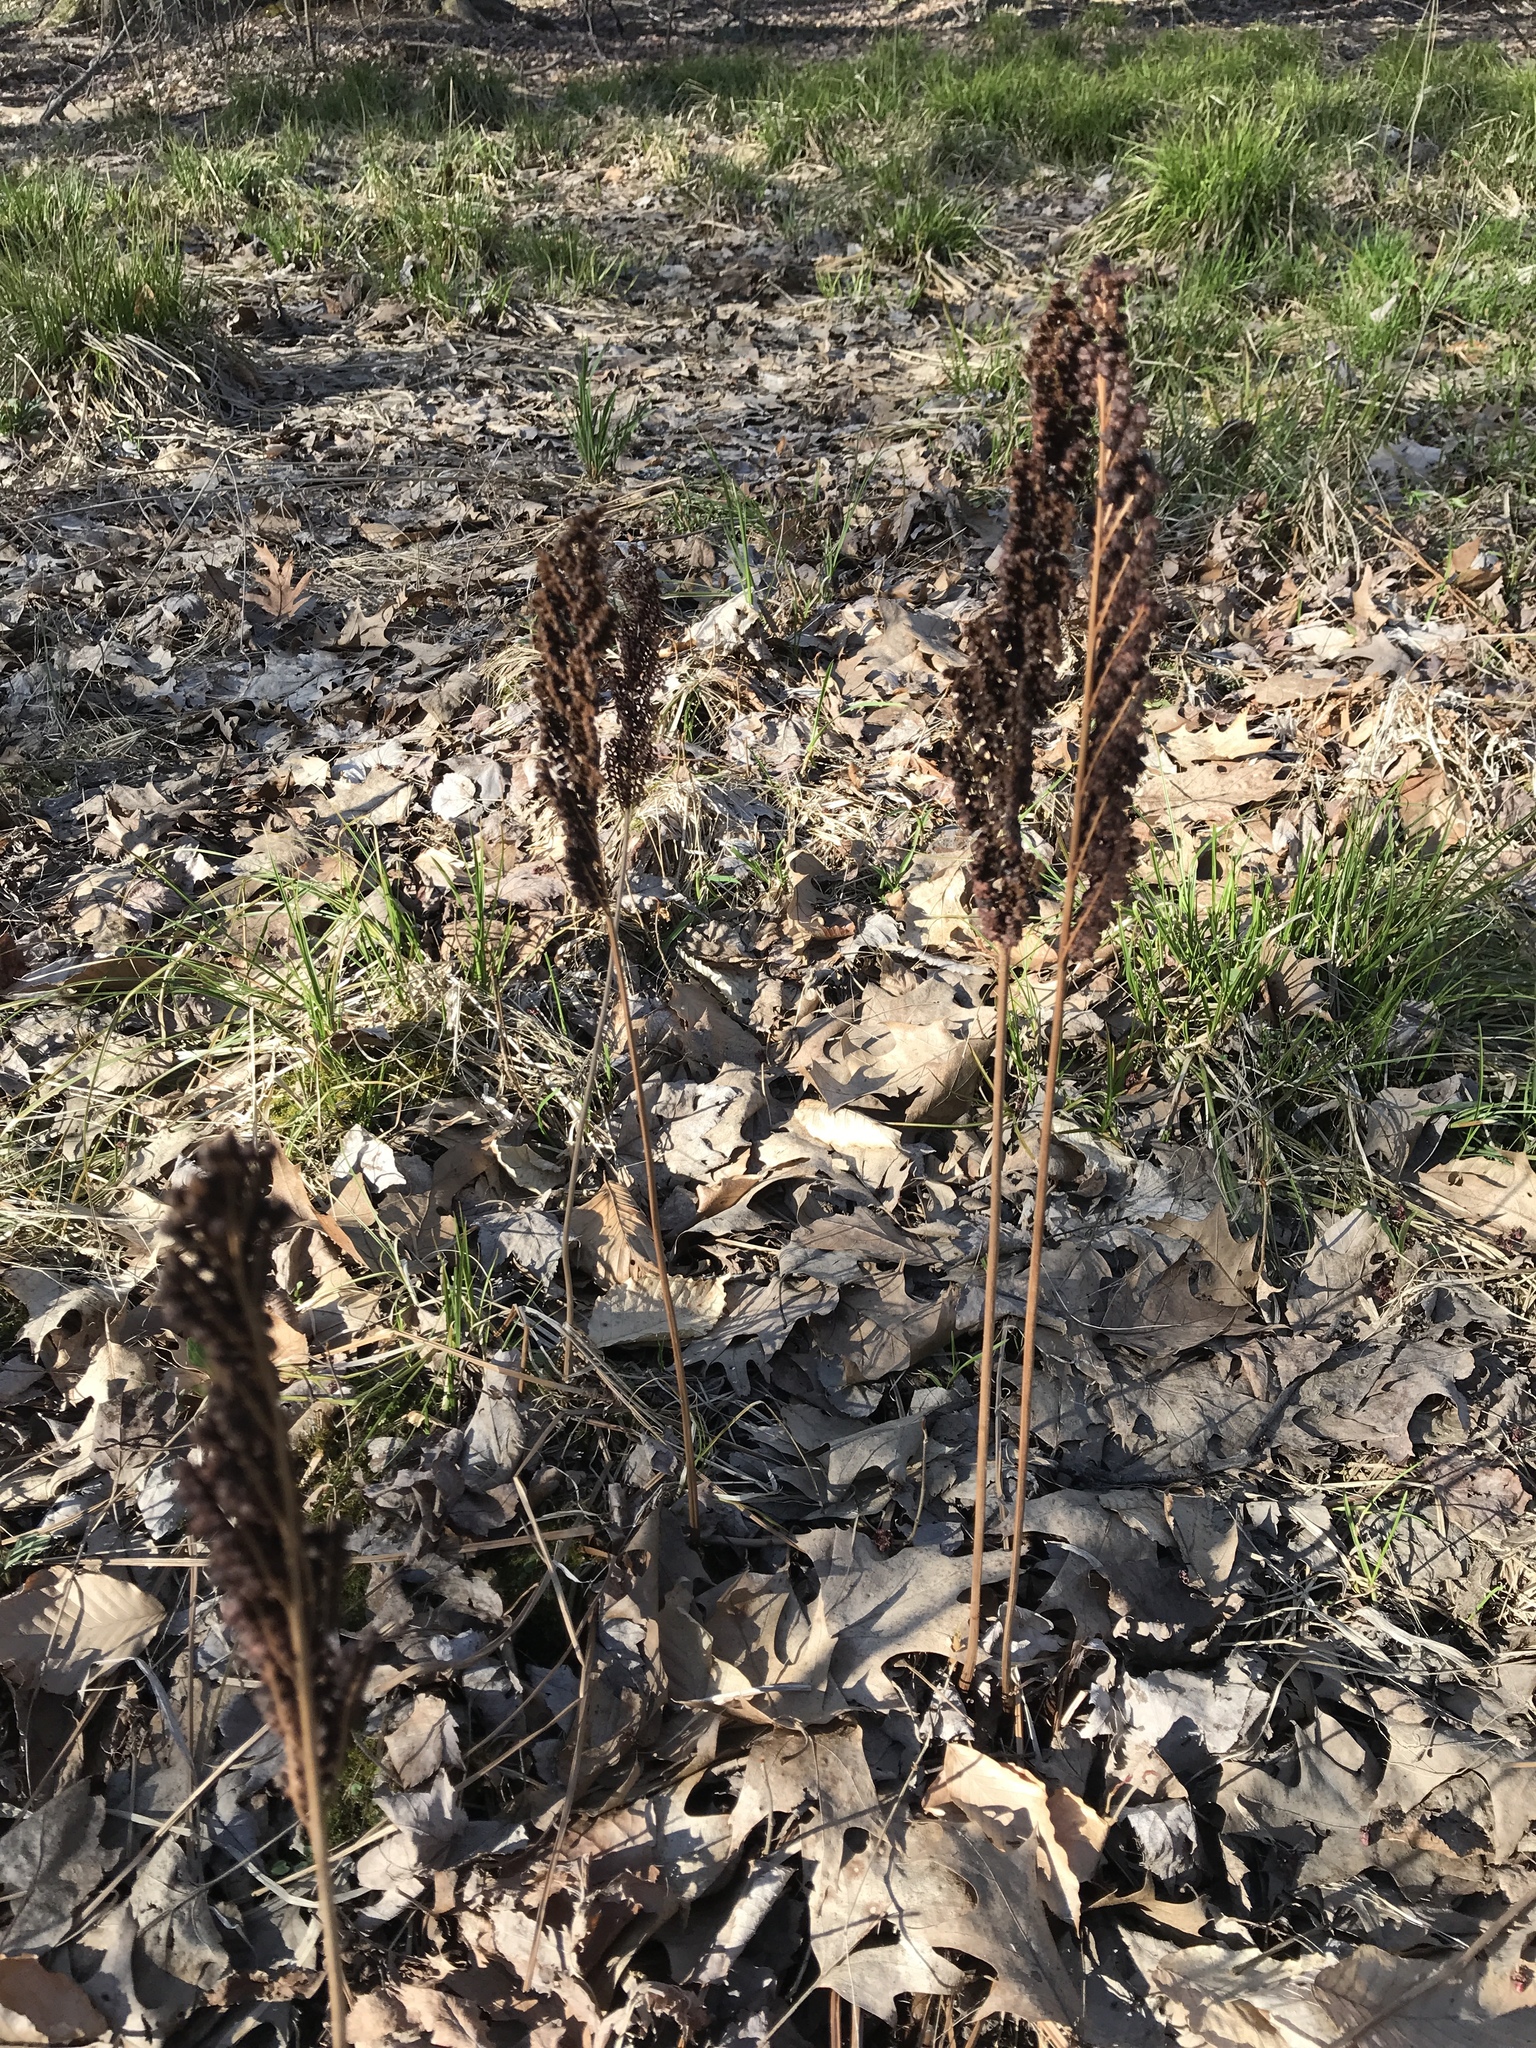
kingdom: Plantae
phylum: Tracheophyta
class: Polypodiopsida
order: Polypodiales
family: Onocleaceae
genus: Onoclea
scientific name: Onoclea sensibilis
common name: Sensitive fern
